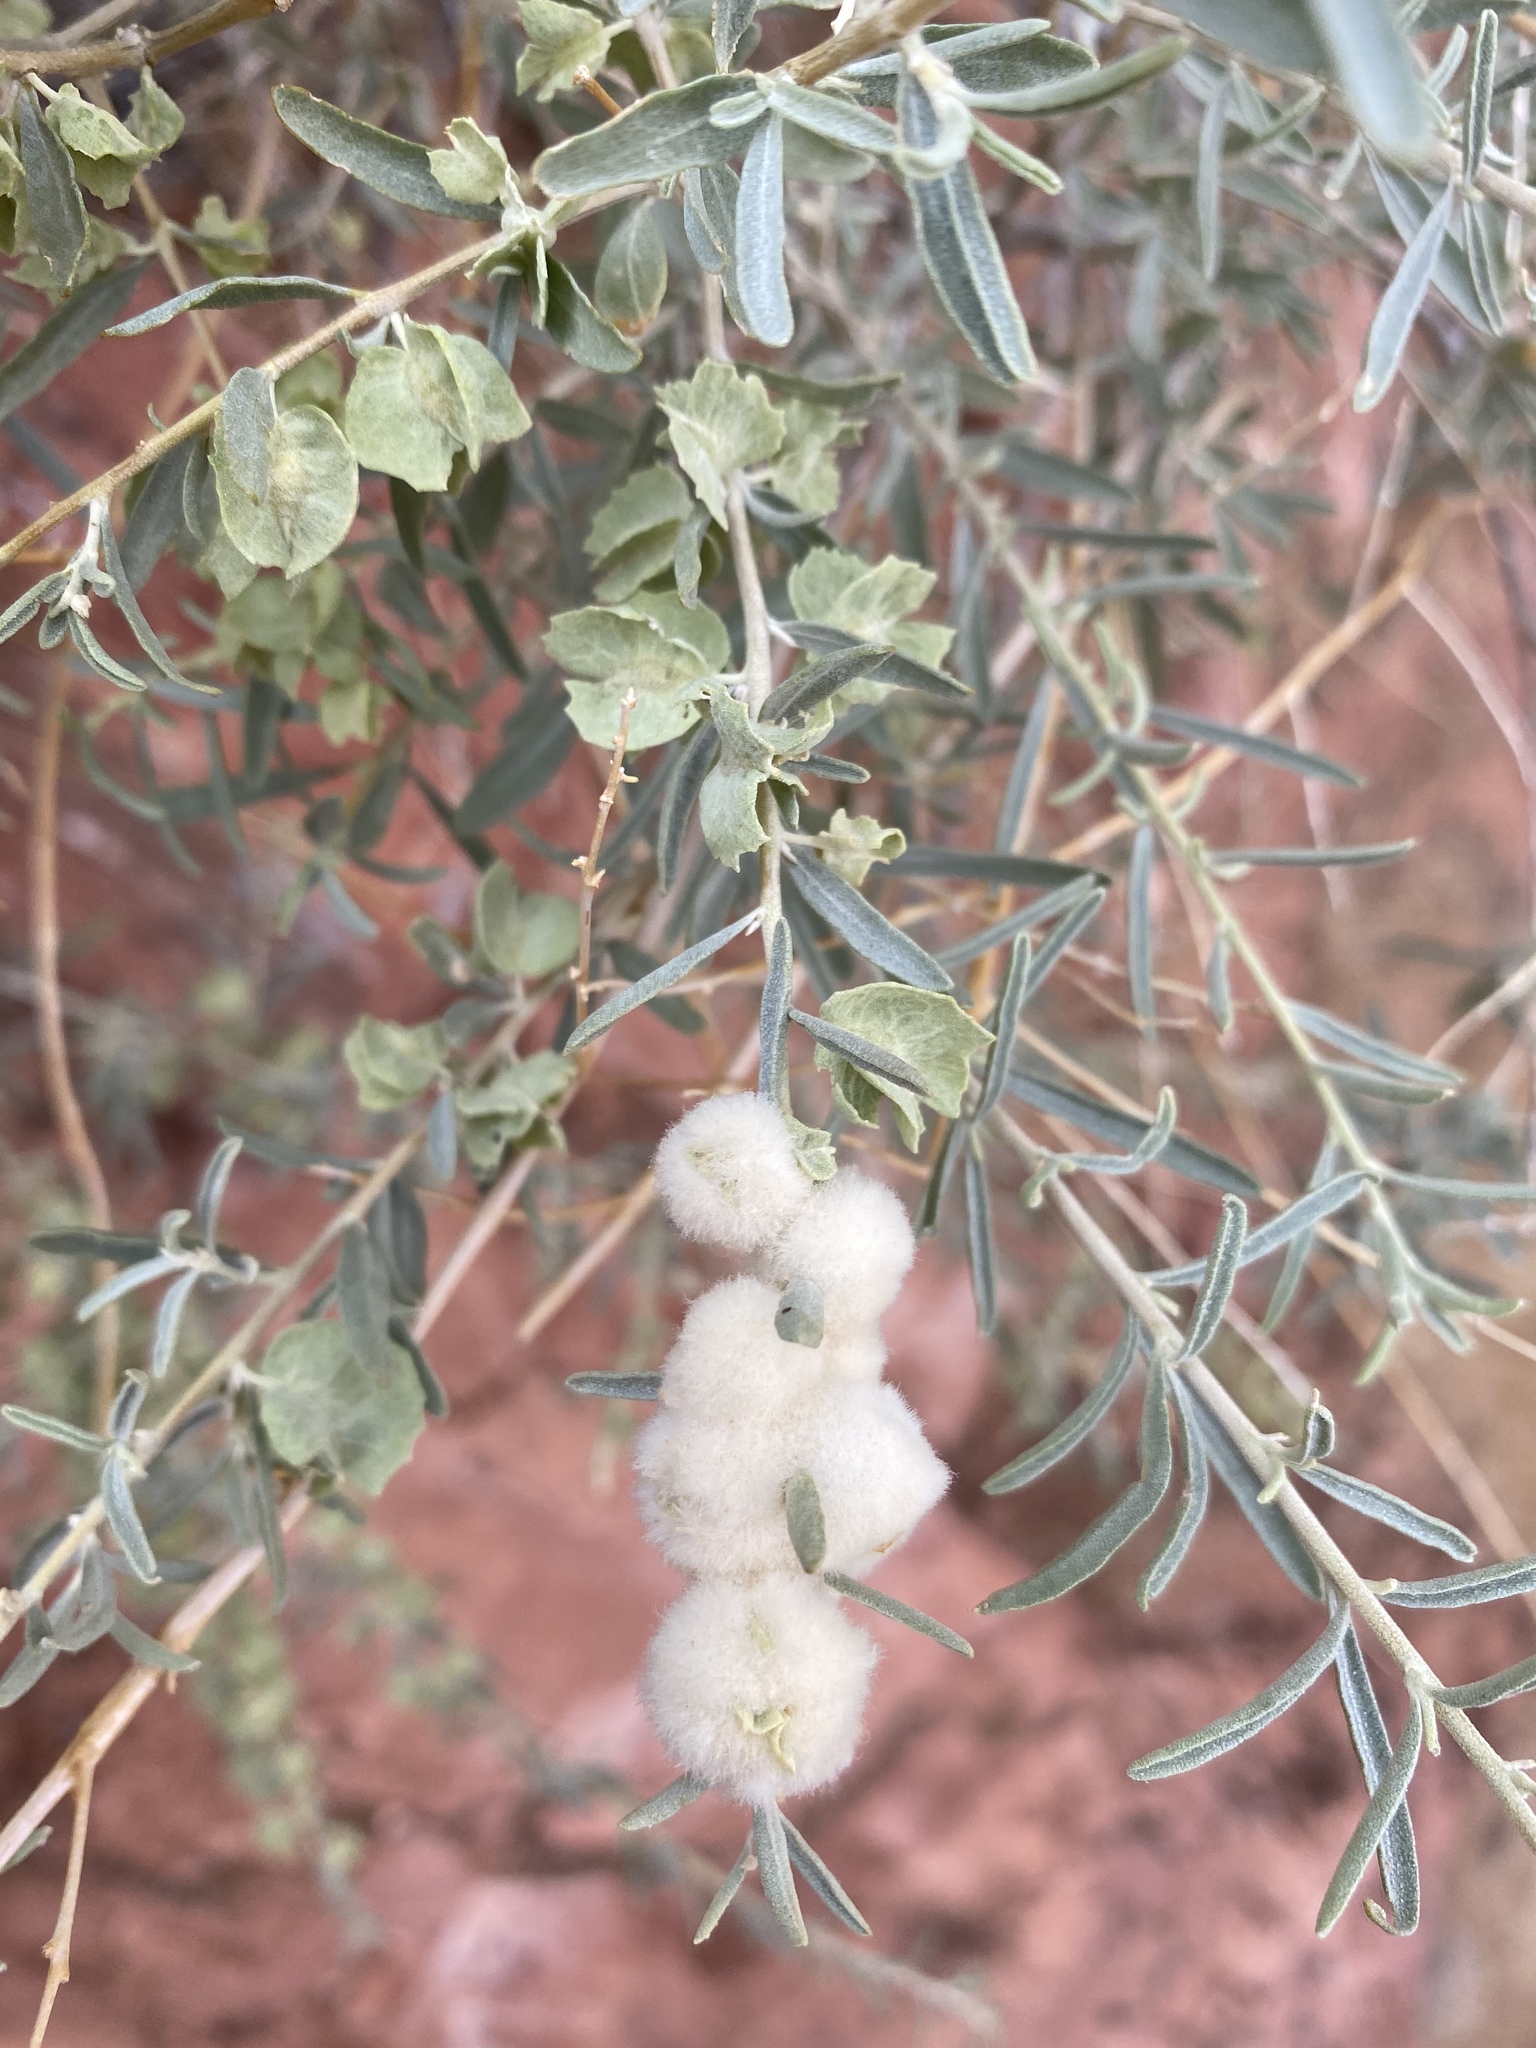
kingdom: Plantae
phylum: Tracheophyta
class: Magnoliopsida
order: Caryophyllales
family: Amaranthaceae
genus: Atriplex
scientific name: Atriplex canescens
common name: Four-wing saltbush
